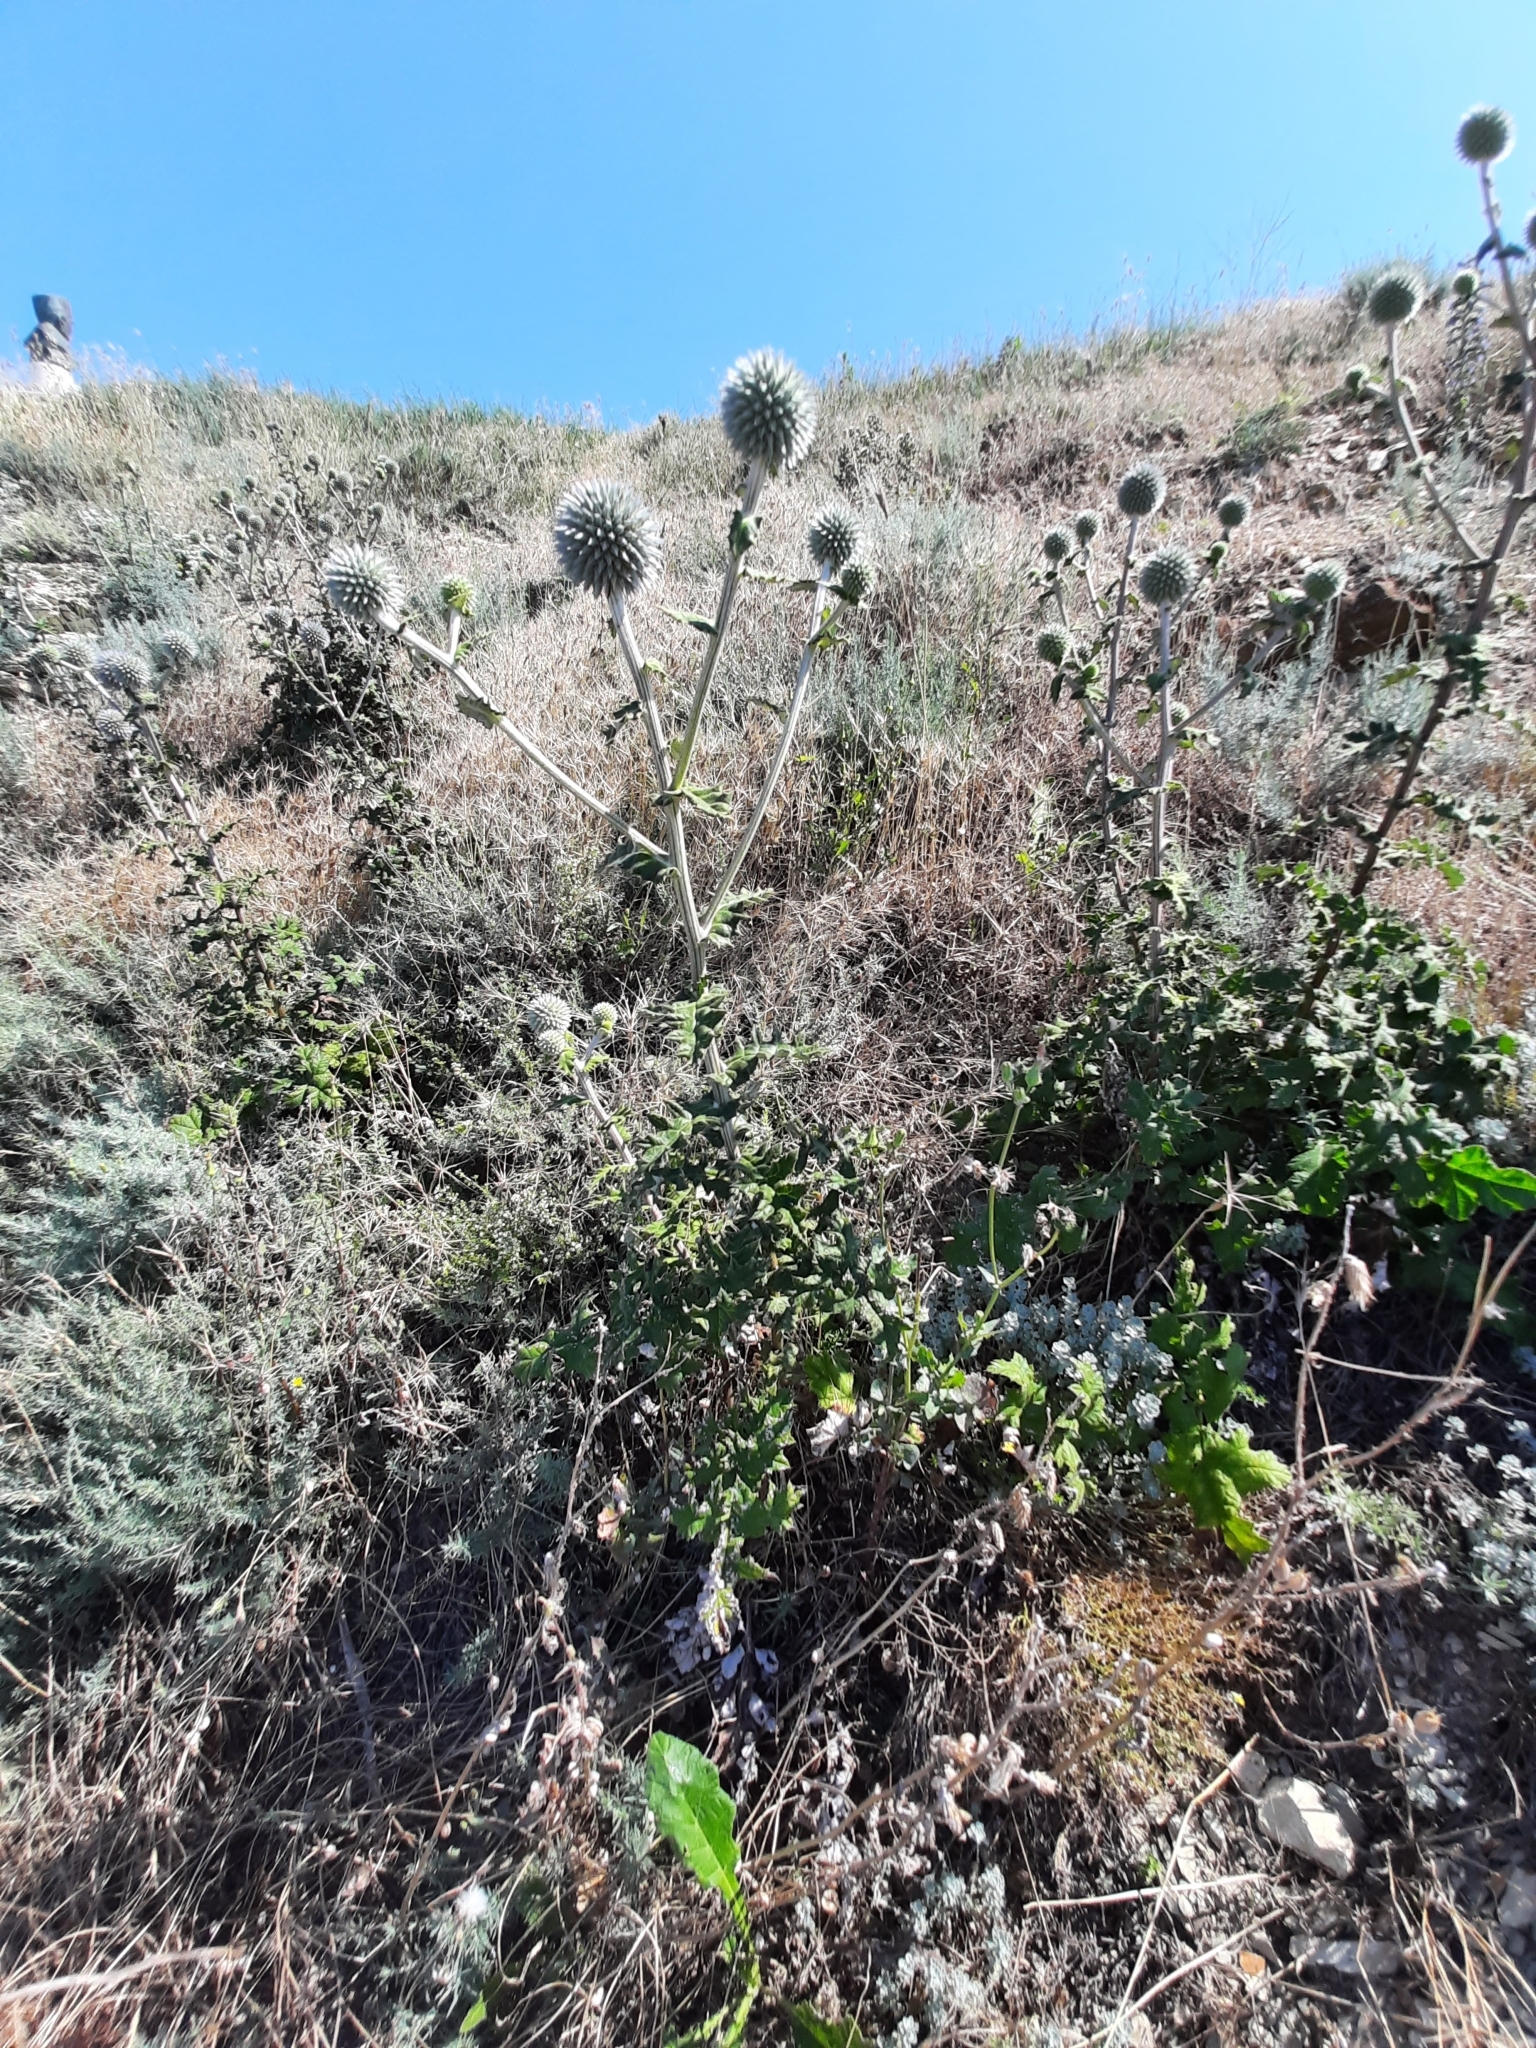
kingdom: Plantae
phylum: Tracheophyta
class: Magnoliopsida
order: Asterales
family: Asteraceae
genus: Echinops
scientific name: Echinops sphaerocephalus
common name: Glandular globe-thistle
